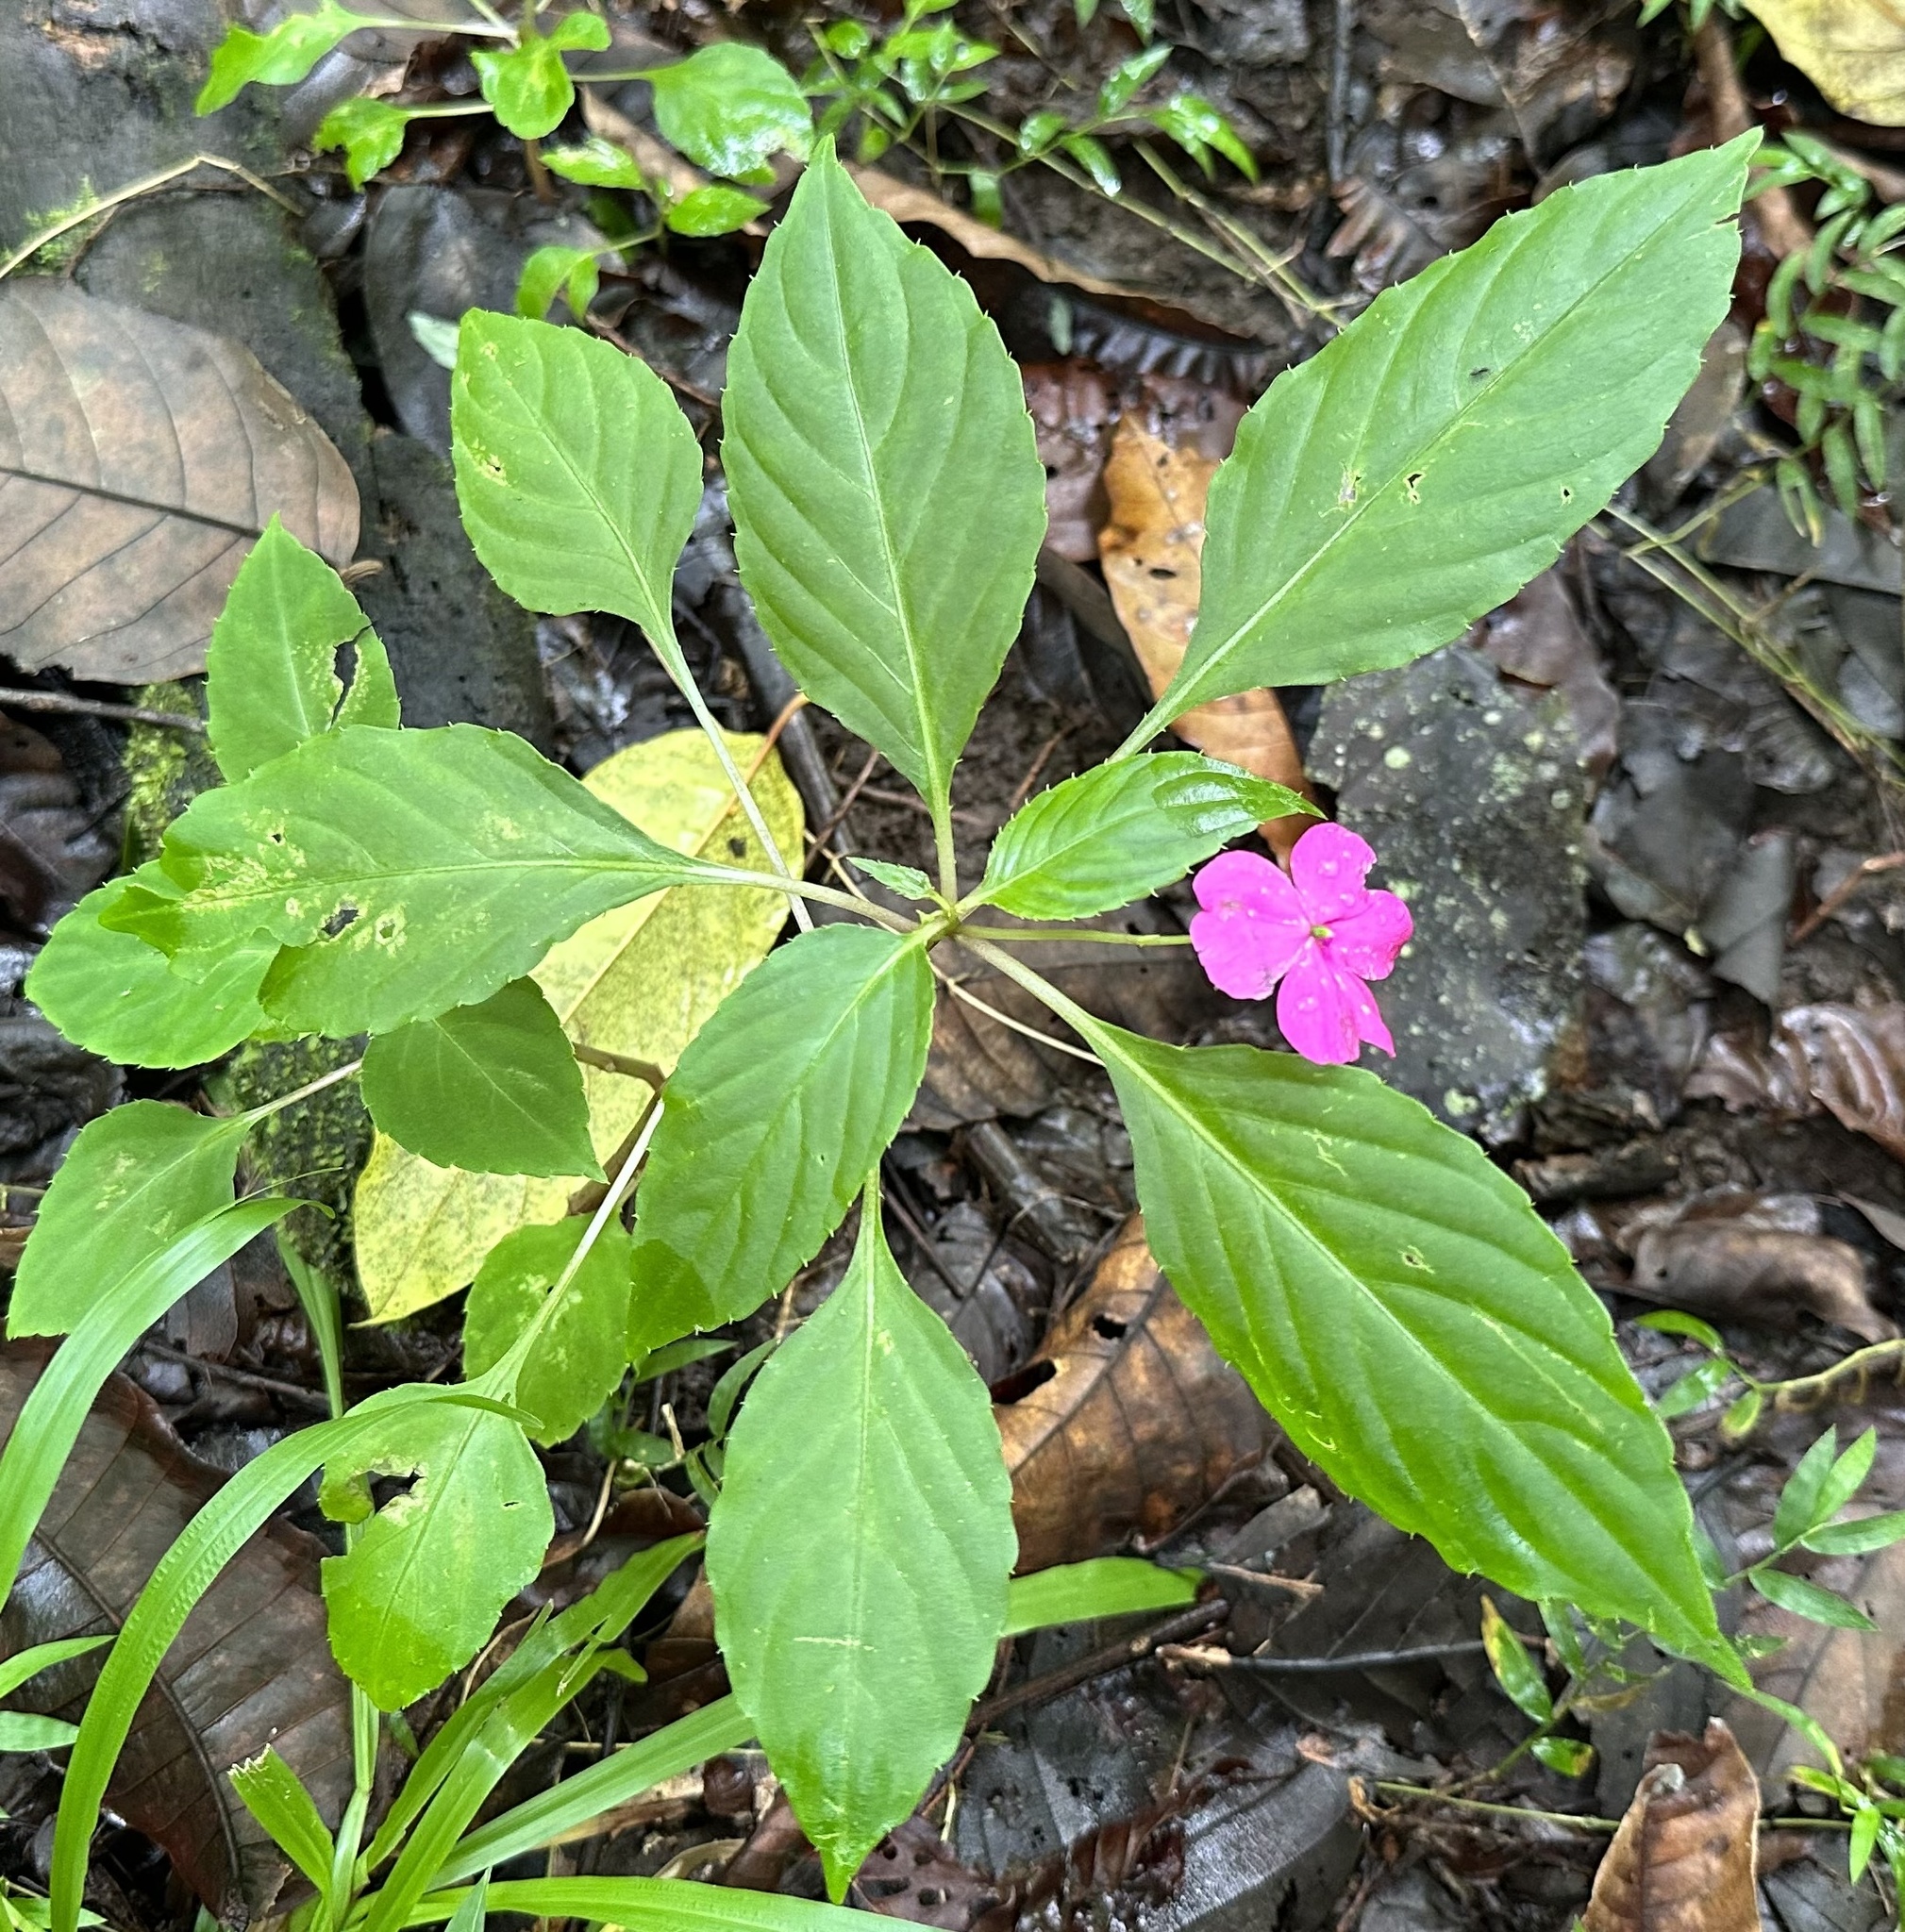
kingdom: Plantae
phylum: Tracheophyta
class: Magnoliopsida
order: Ericales
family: Balsaminaceae
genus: Impatiens
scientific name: Impatiens walleriana
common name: Buzzy lizzy
